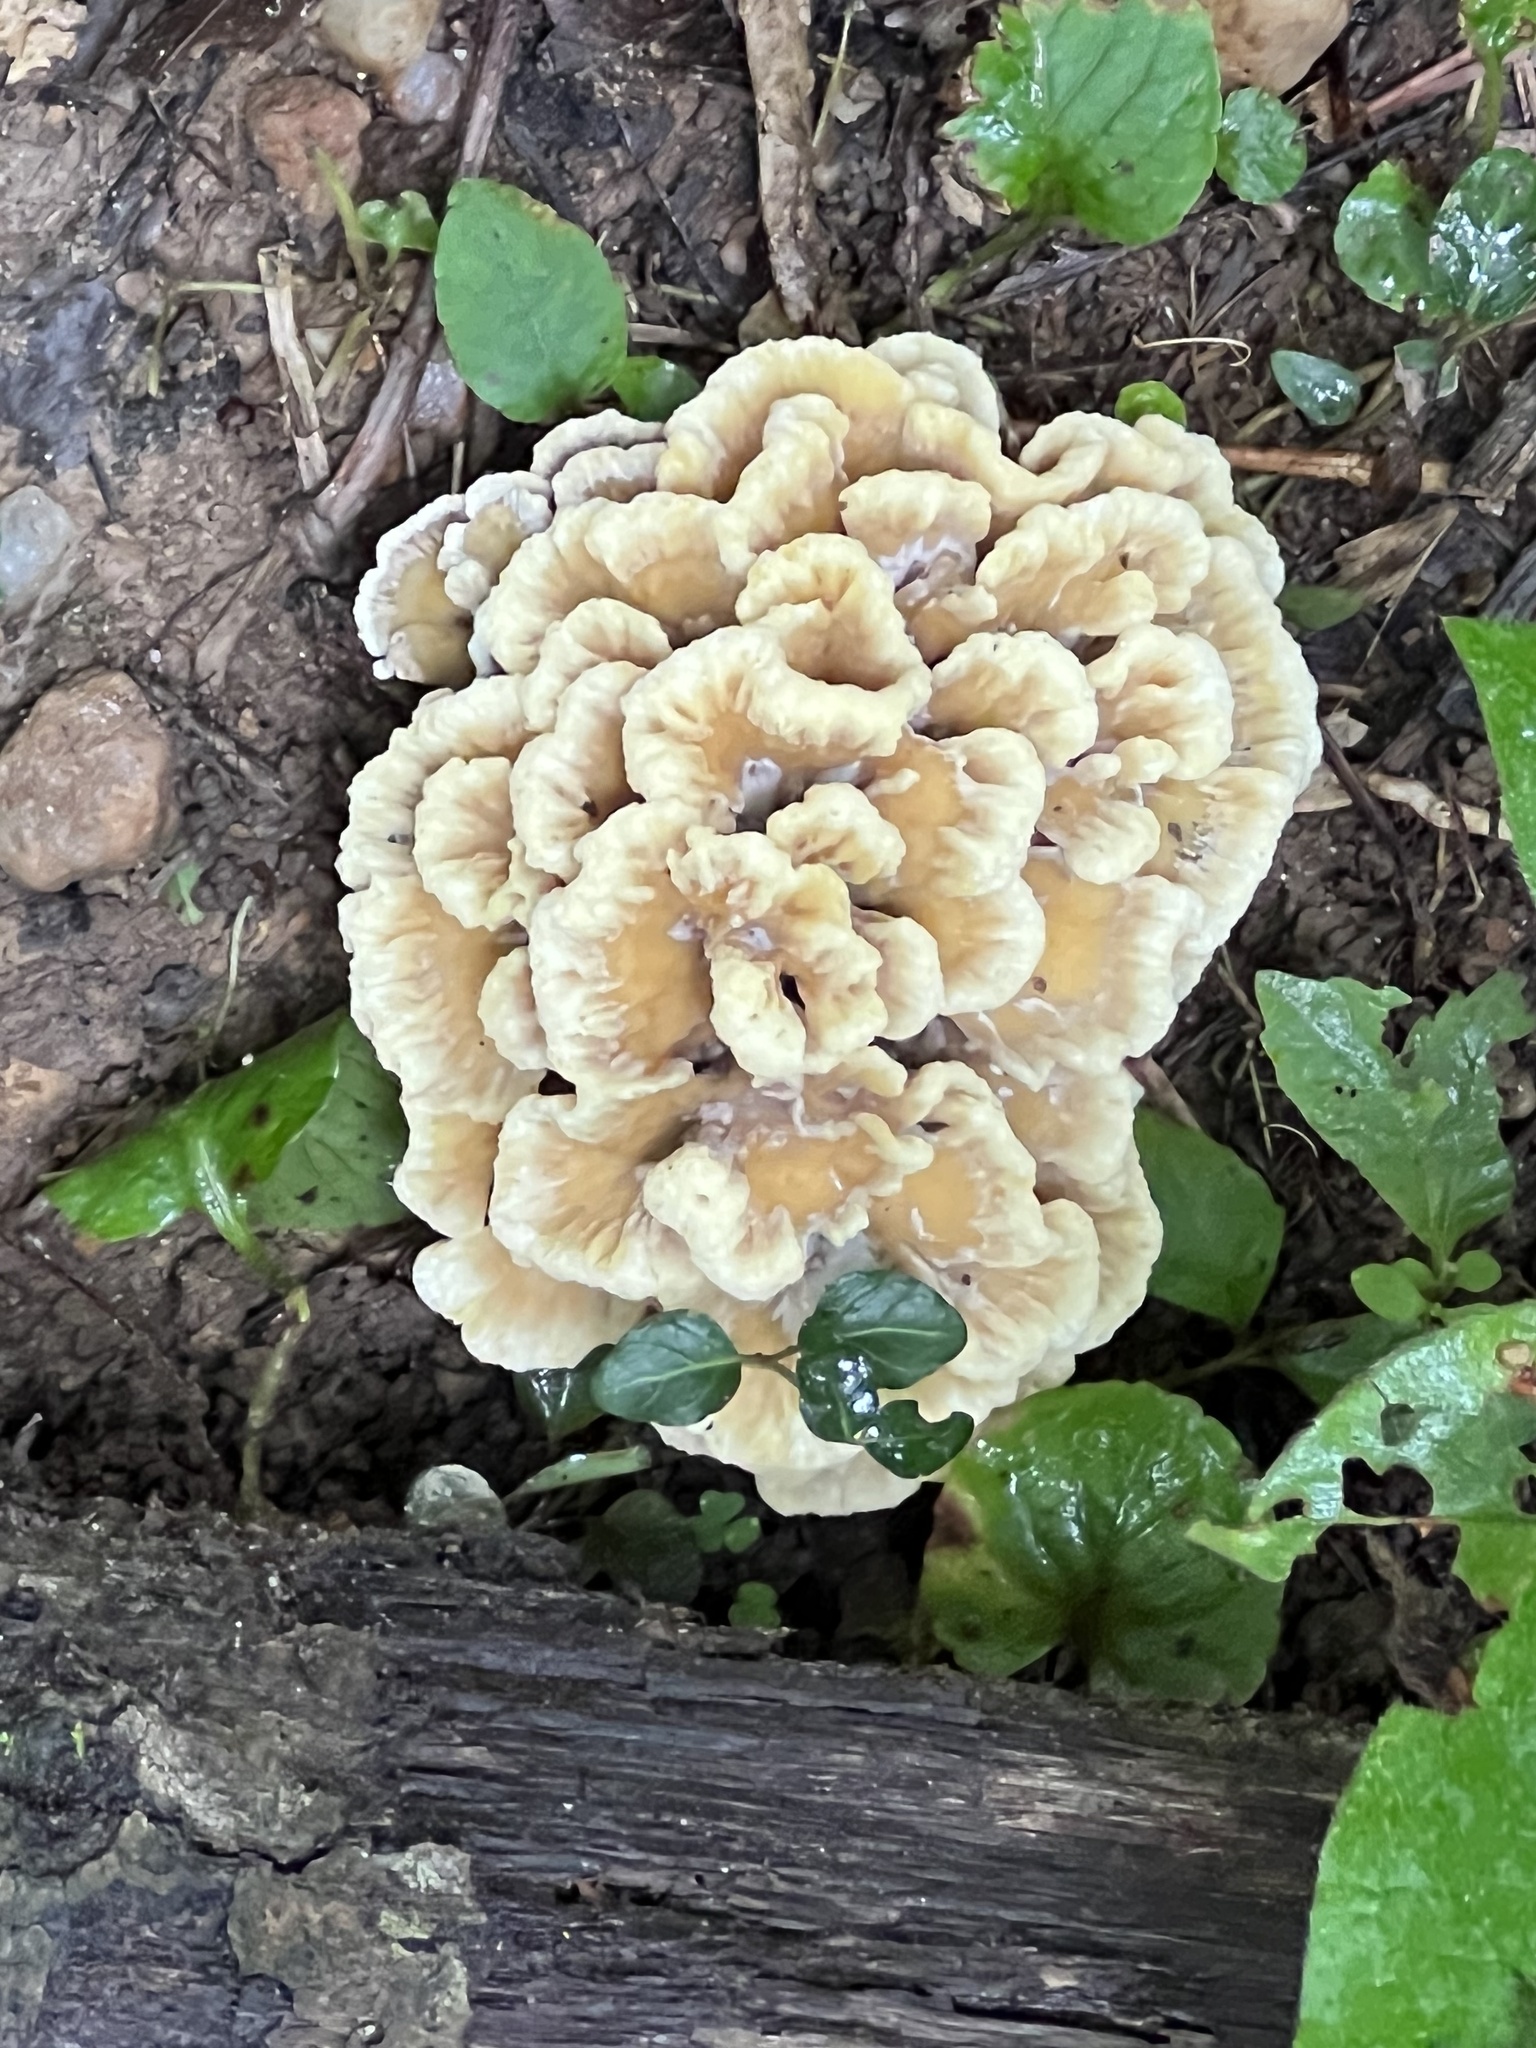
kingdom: Fungi
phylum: Basidiomycota
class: Agaricomycetes
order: Thelephorales
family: Thelephoraceae
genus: Thelephora
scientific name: Thelephora vialis
